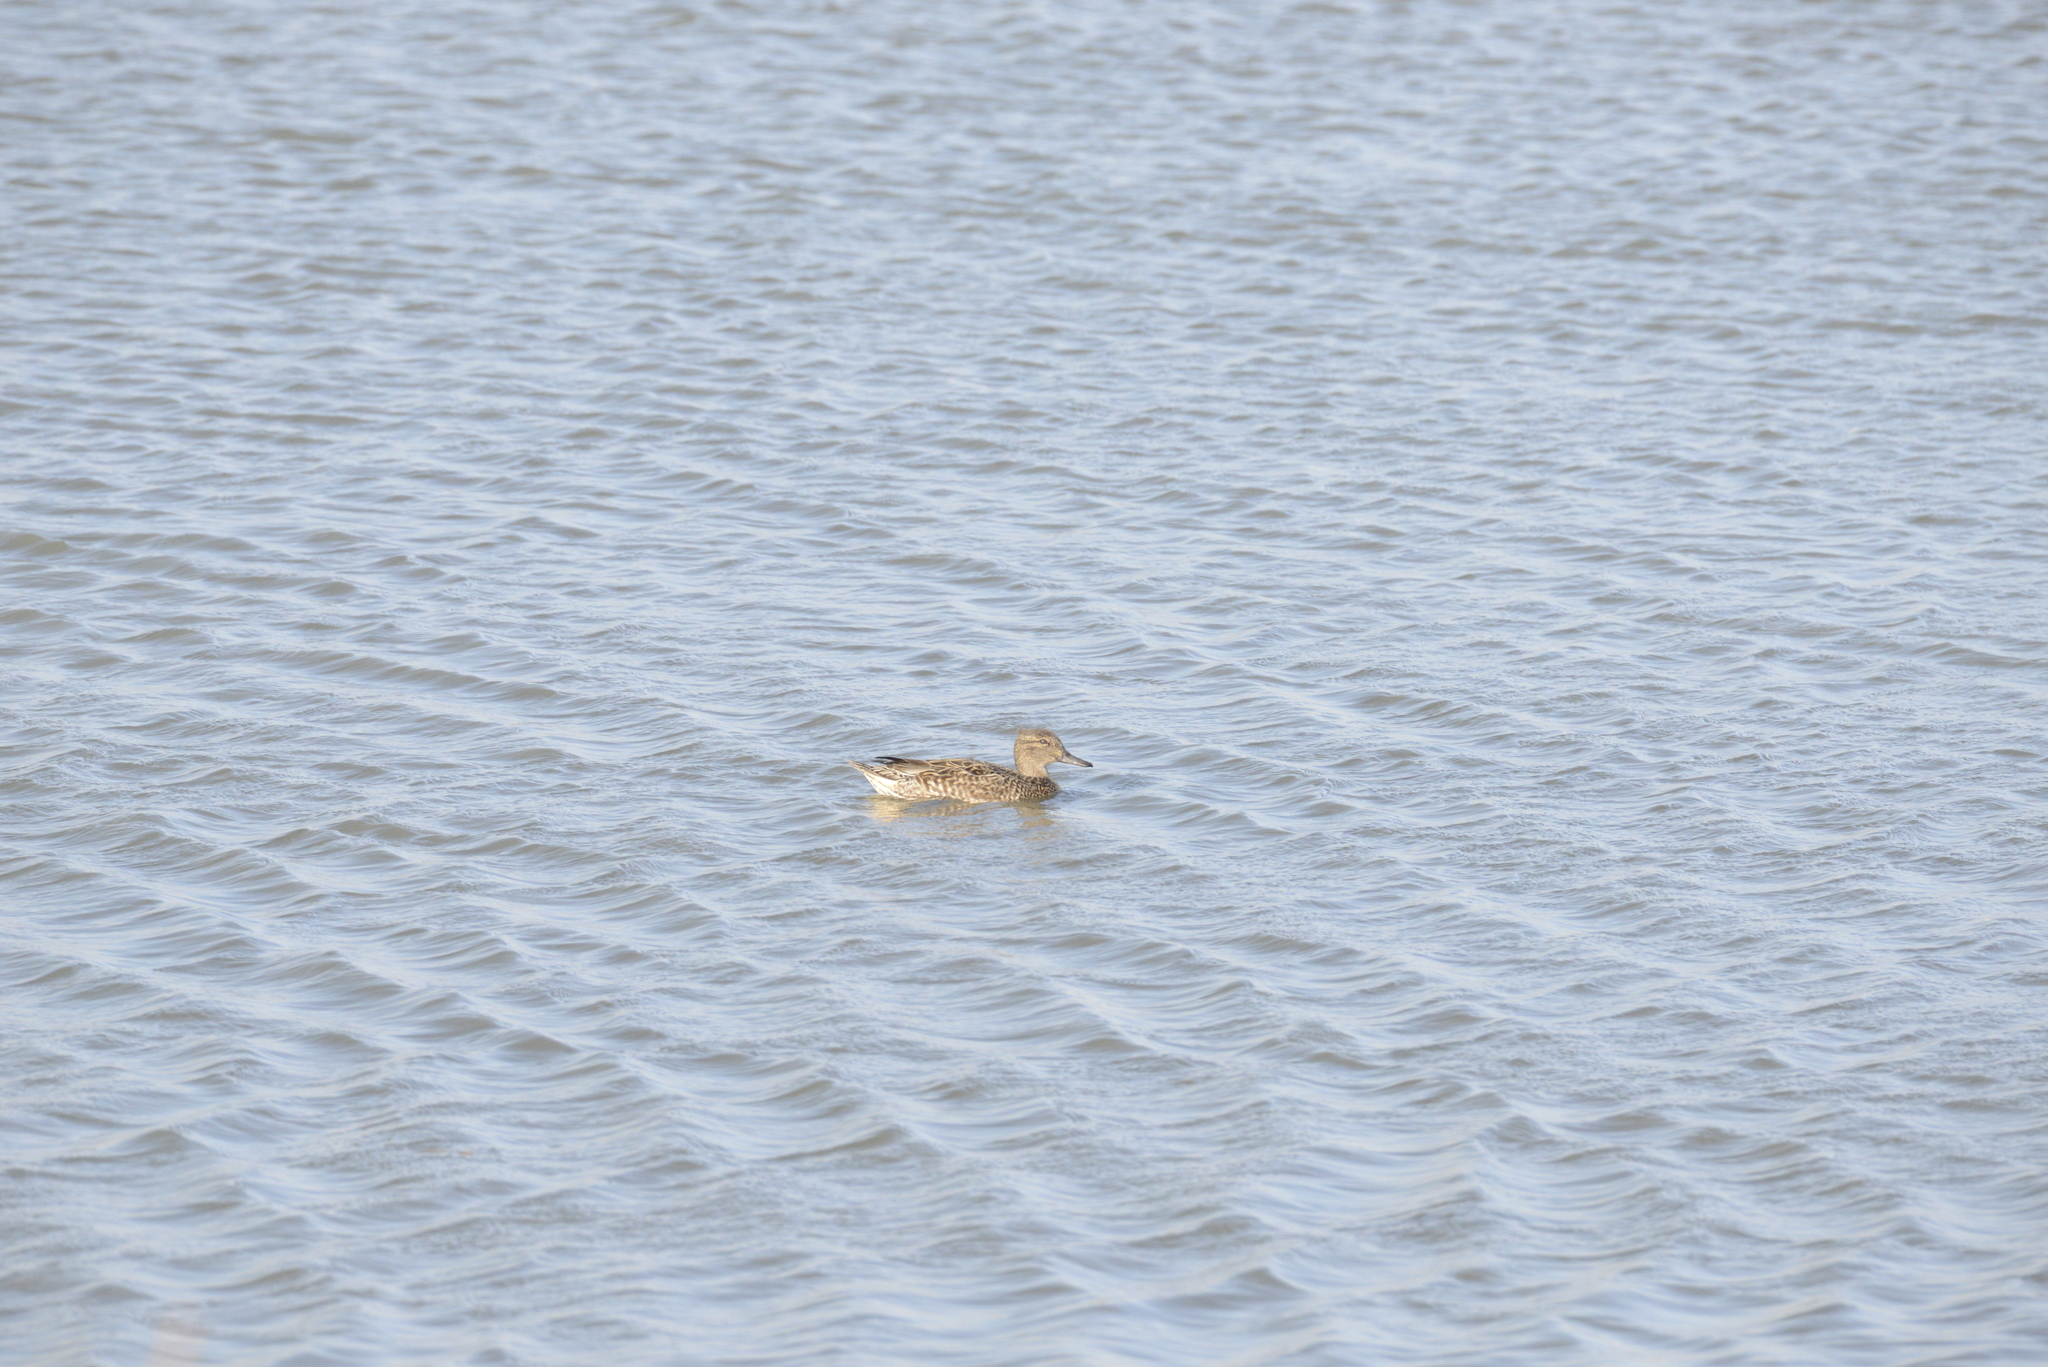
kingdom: Animalia
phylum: Chordata
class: Aves
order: Anseriformes
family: Anatidae
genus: Anas
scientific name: Anas crecca
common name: Eurasian teal
